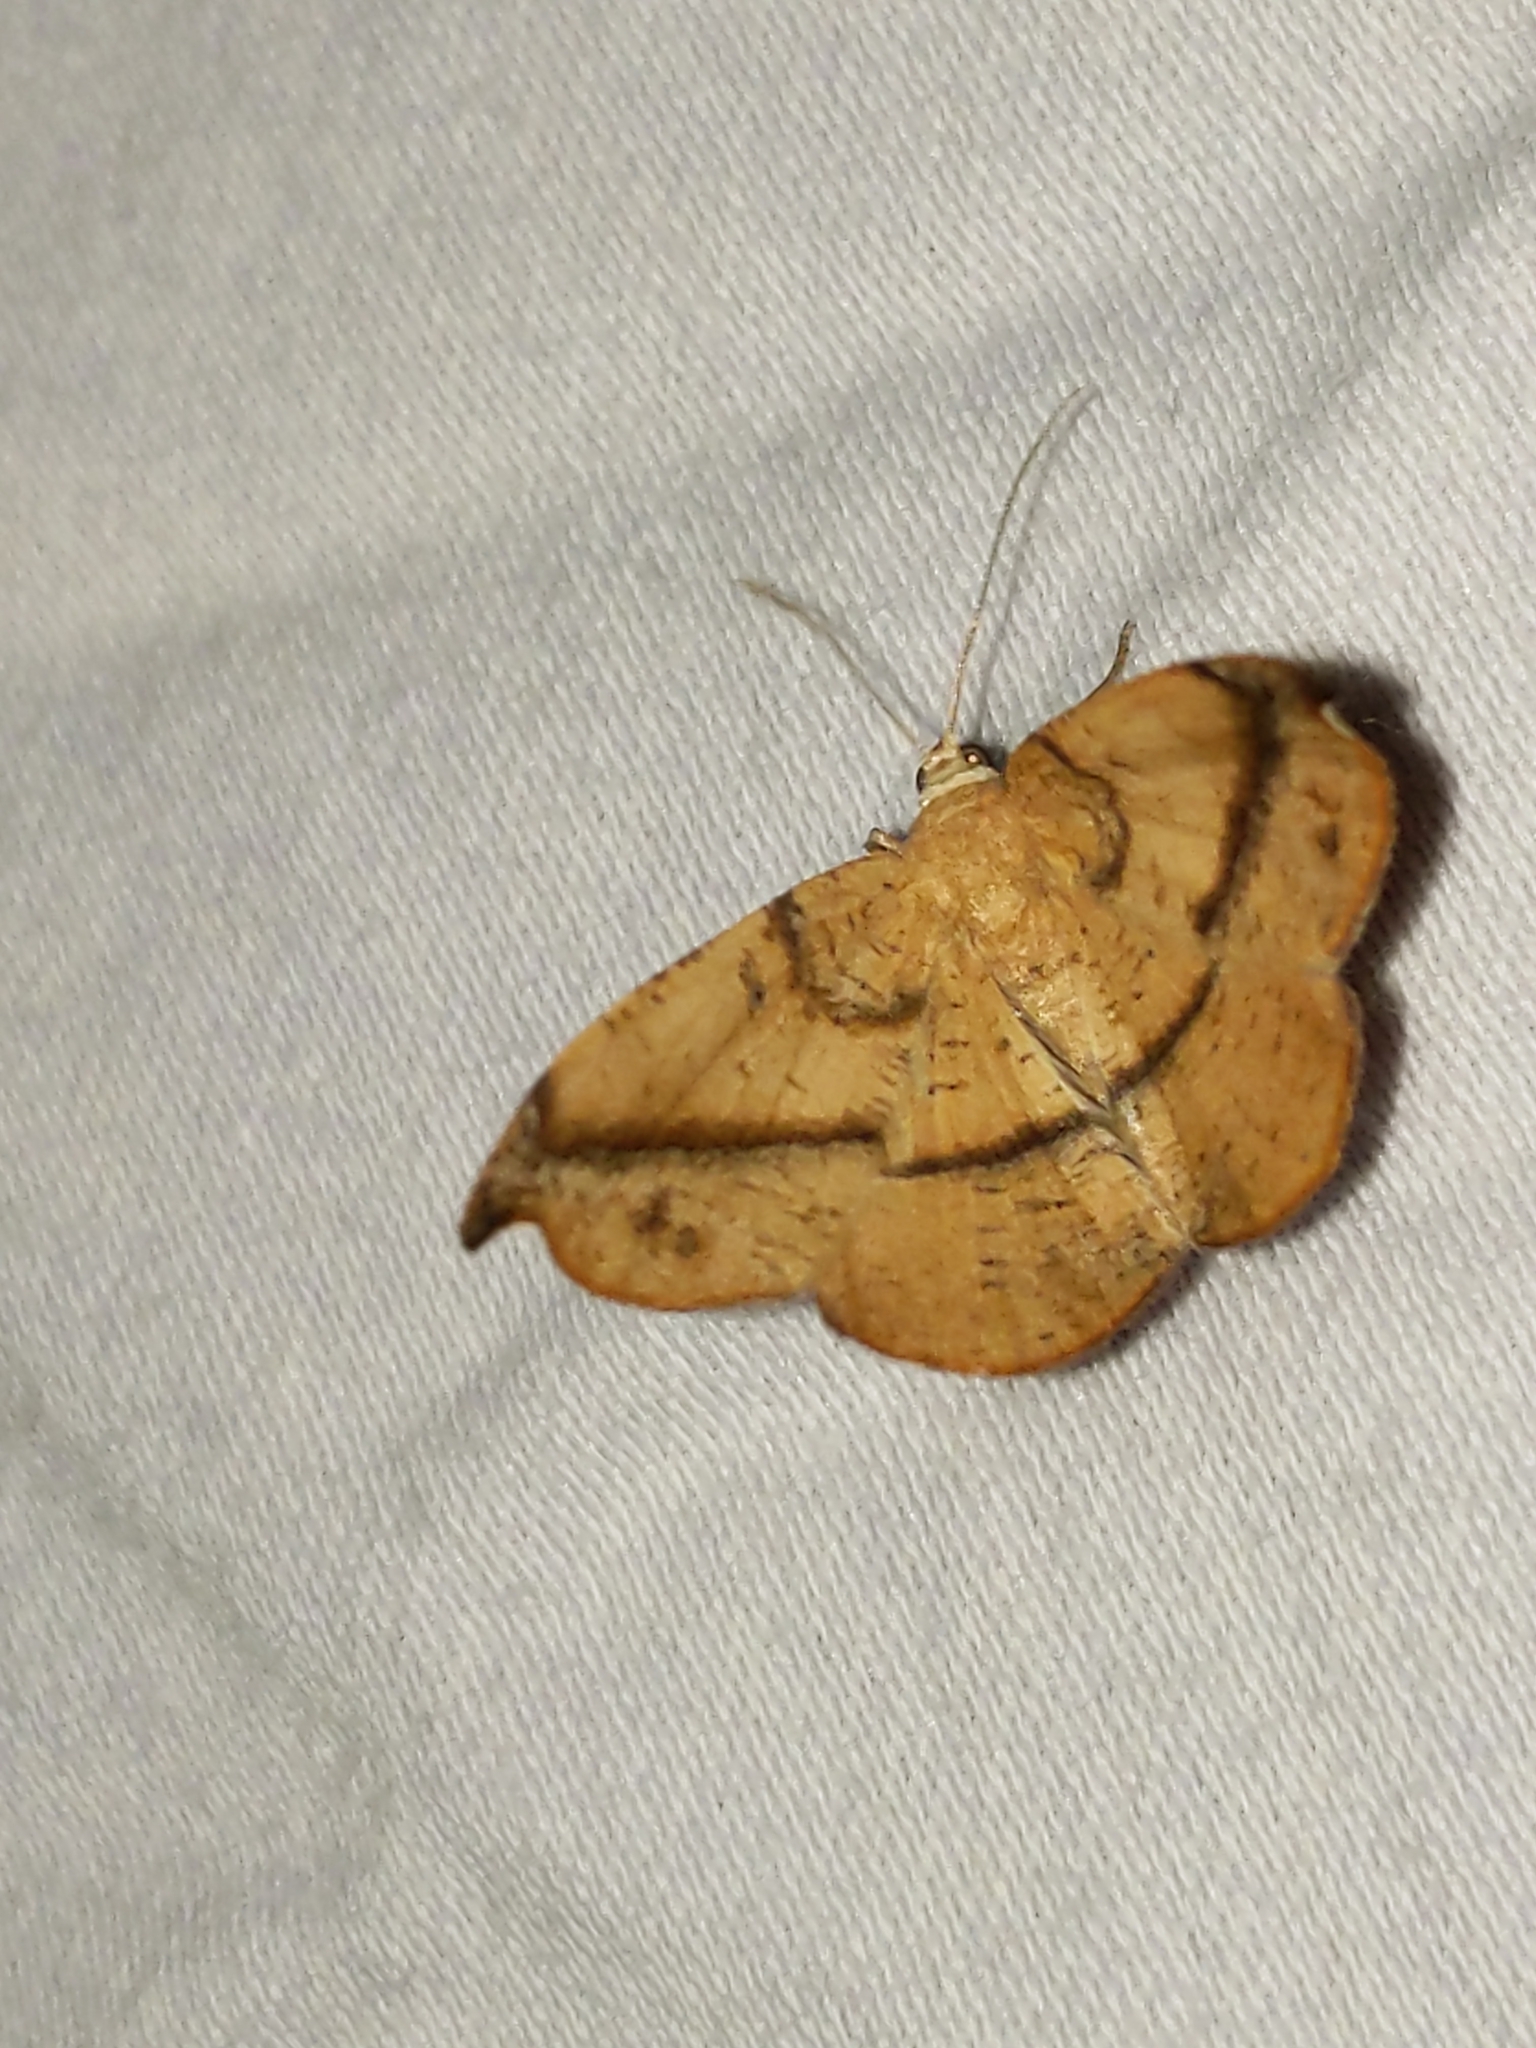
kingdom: Animalia
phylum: Arthropoda
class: Insecta
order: Lepidoptera
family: Geometridae
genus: Patalene
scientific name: Patalene olyzonaria
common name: Juniper geometer moth
